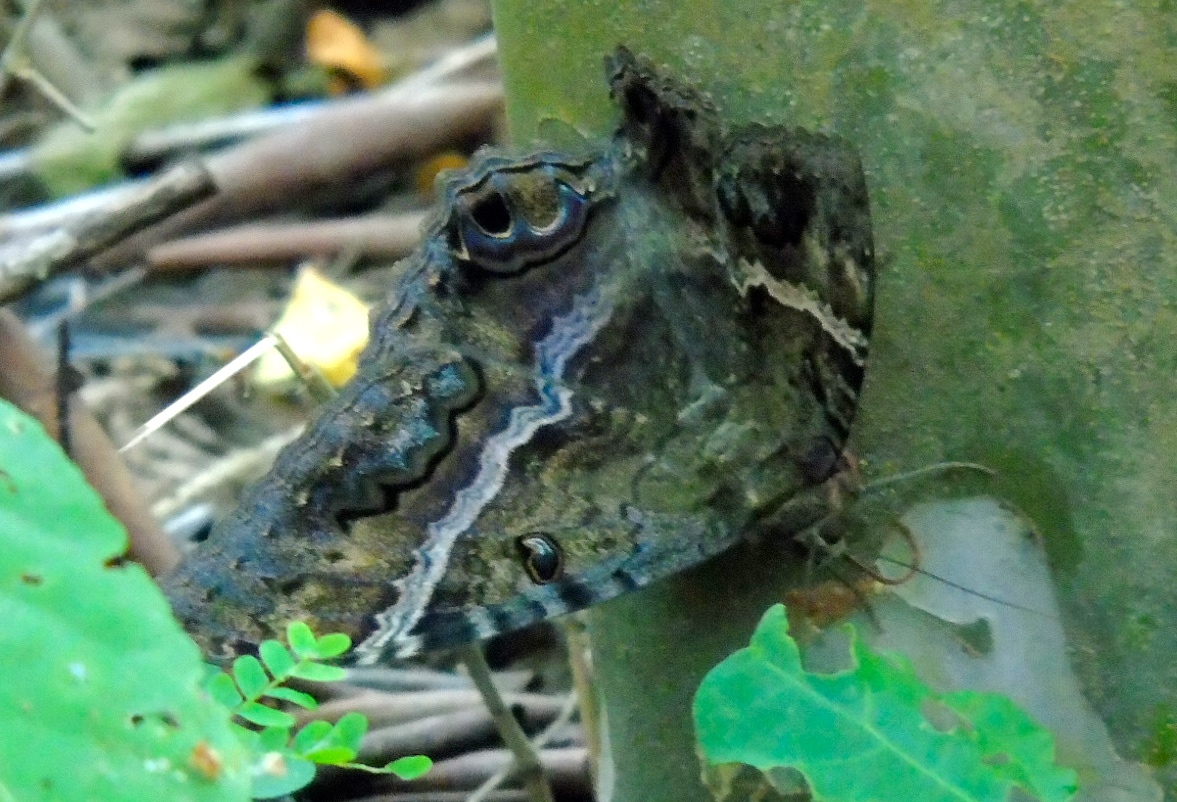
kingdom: Animalia
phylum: Arthropoda
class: Insecta
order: Lepidoptera
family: Erebidae
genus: Ascalapha
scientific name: Ascalapha odorata
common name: Black witch
